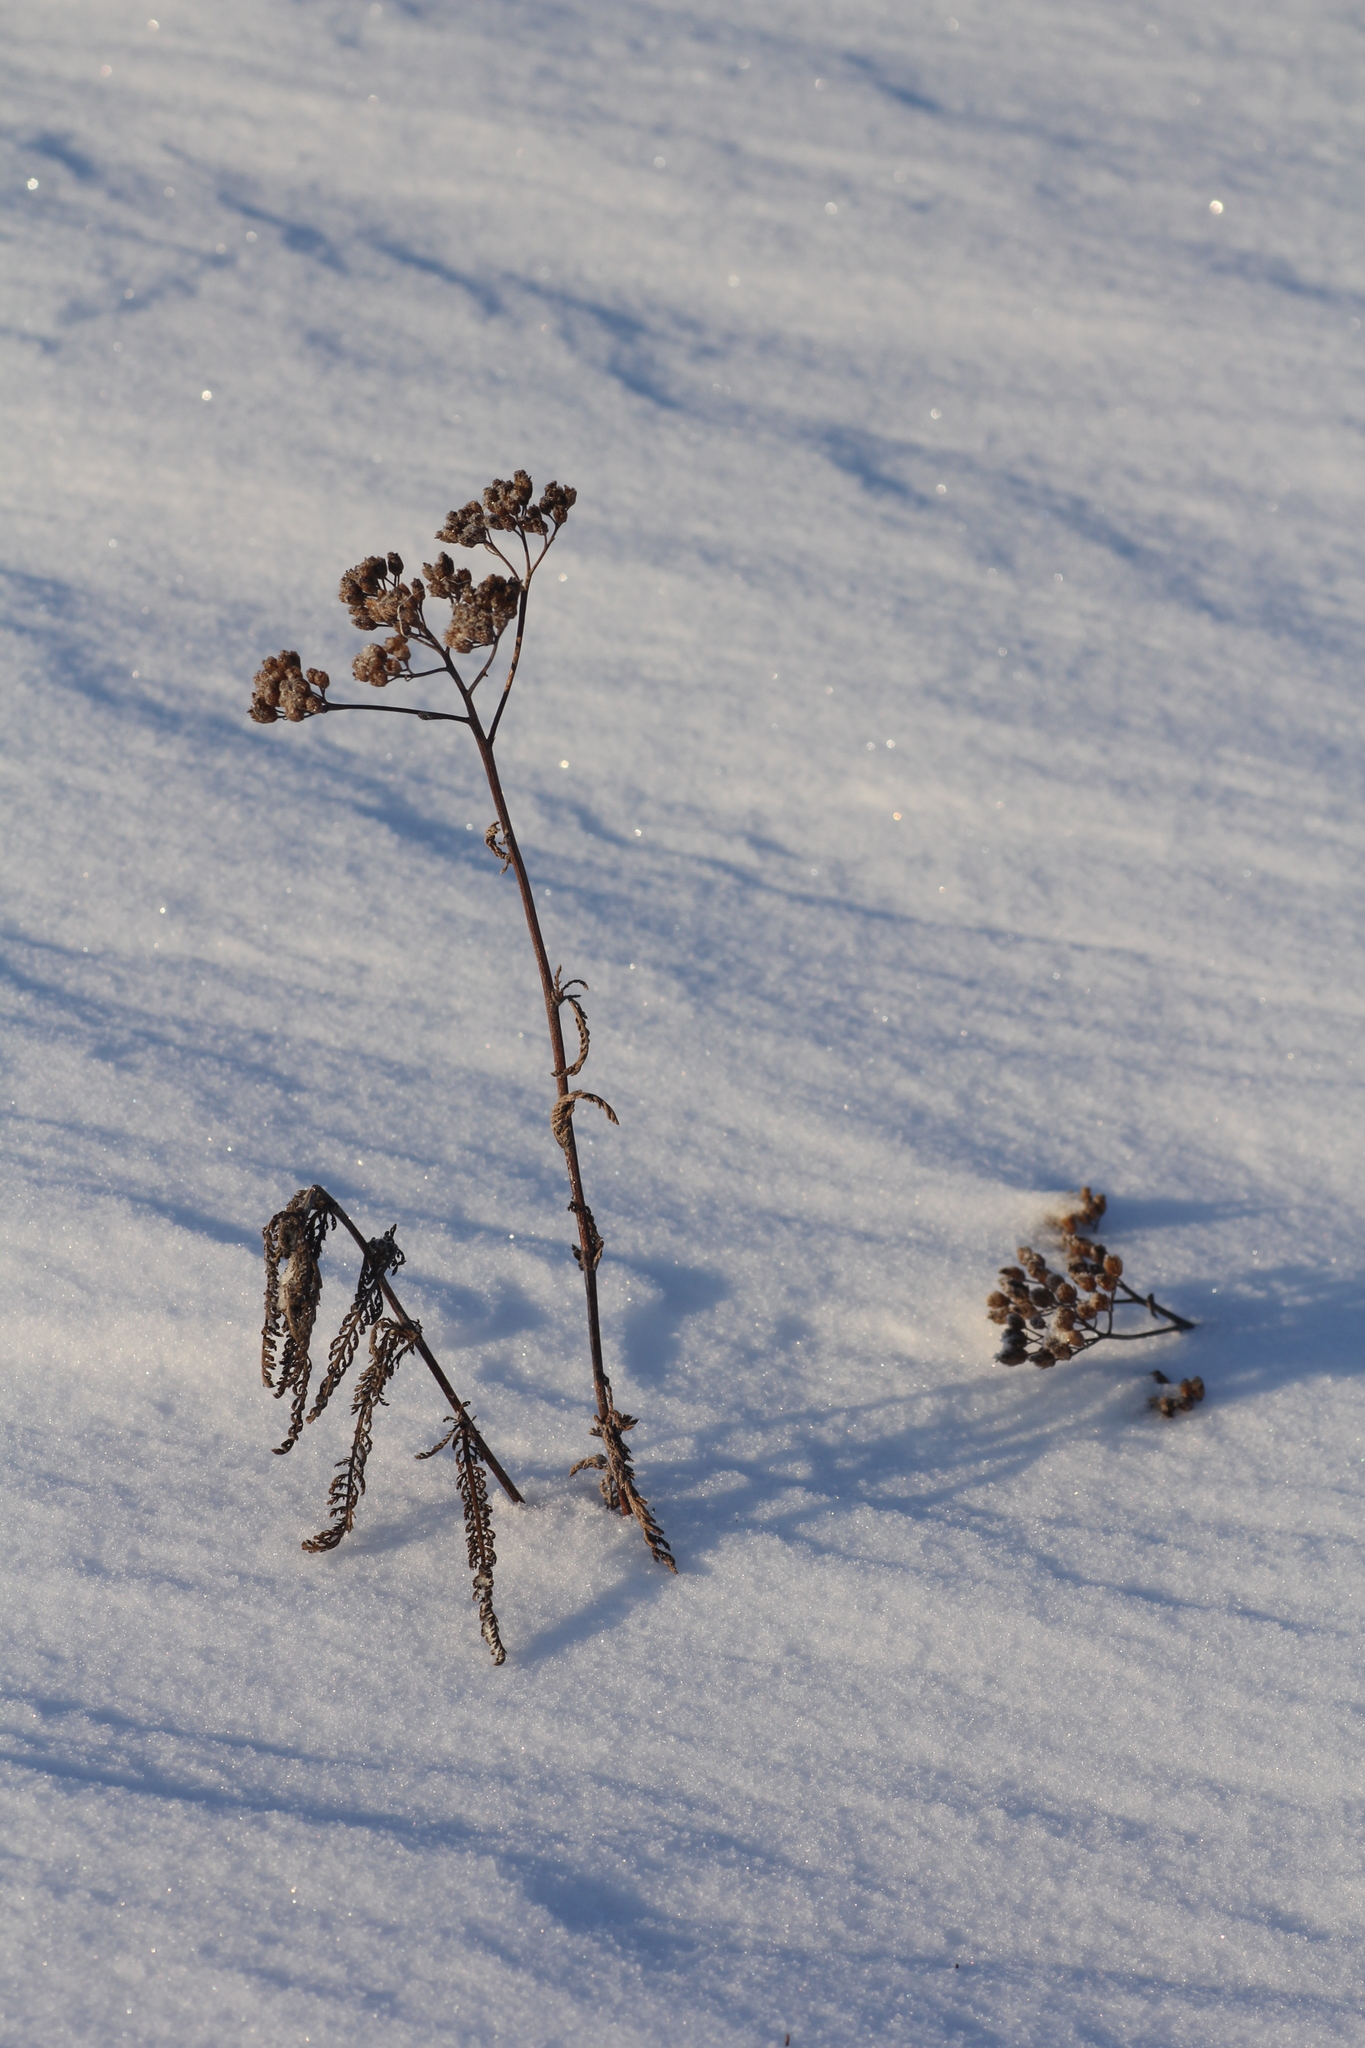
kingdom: Plantae
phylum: Tracheophyta
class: Magnoliopsida
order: Asterales
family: Asteraceae
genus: Achillea
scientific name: Achillea asiatica
